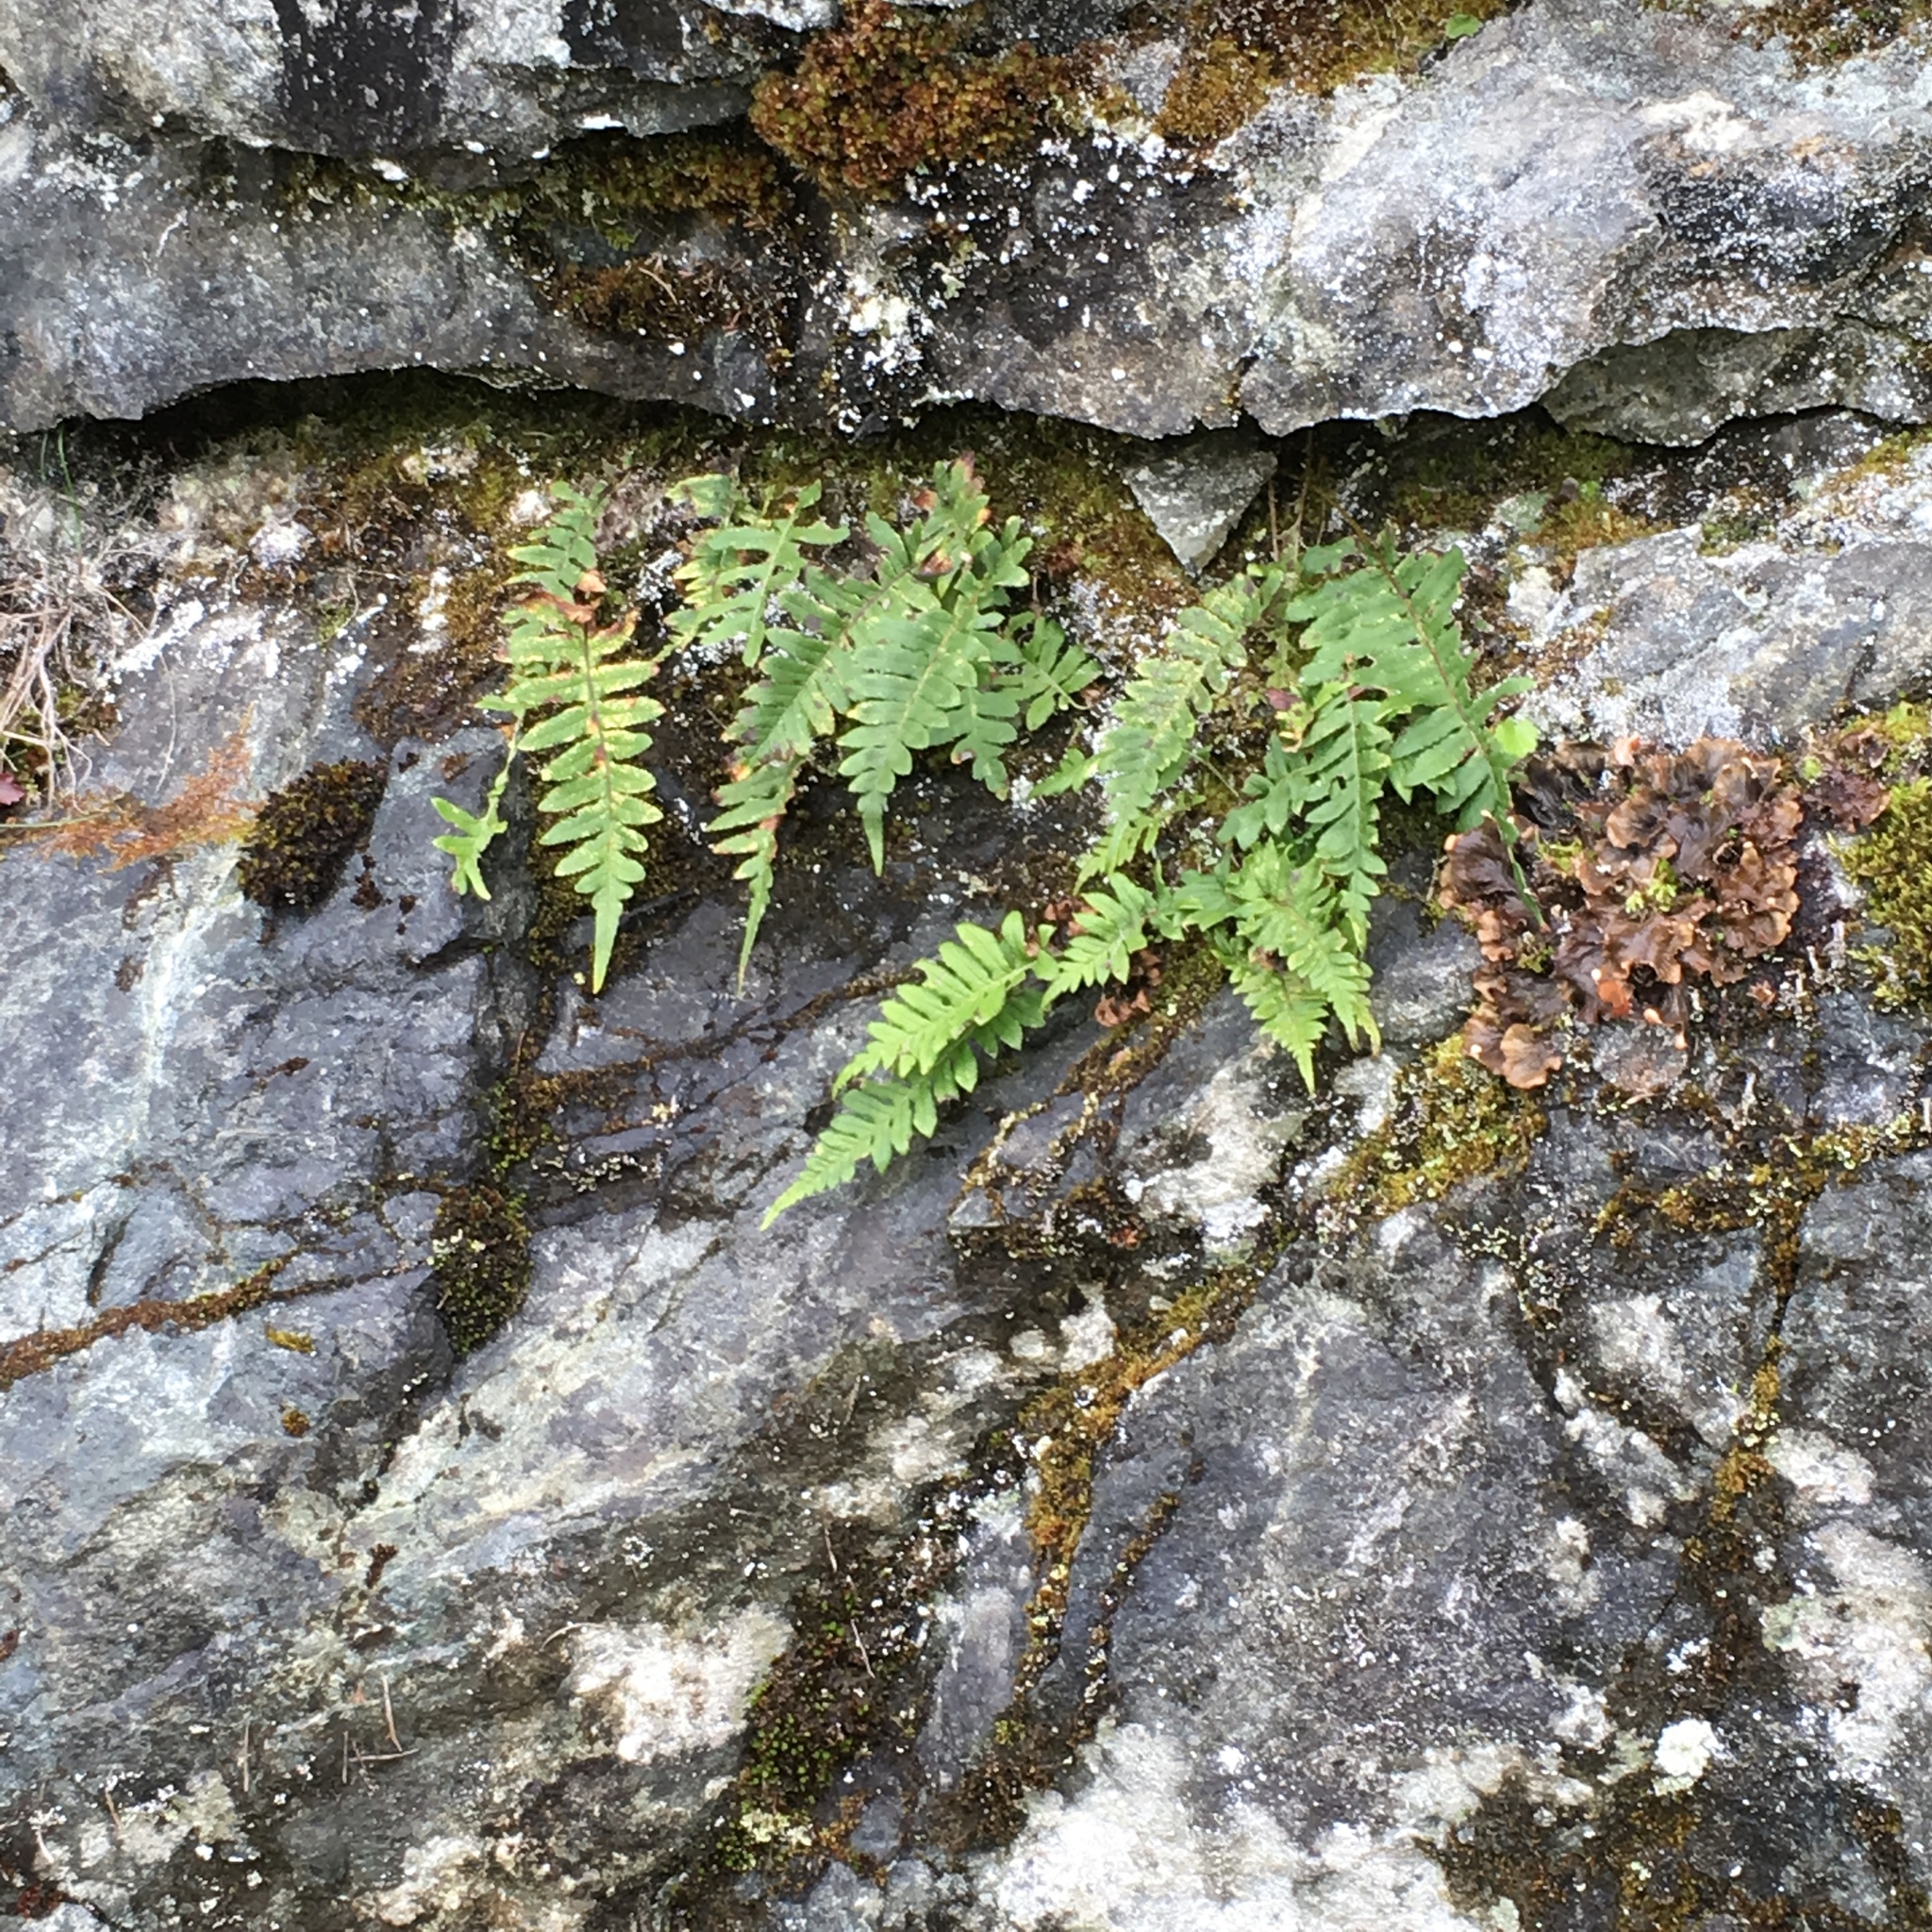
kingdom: Plantae
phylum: Tracheophyta
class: Polypodiopsida
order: Polypodiales
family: Polypodiaceae
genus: Polypodium
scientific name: Polypodium glycyrrhiza
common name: Licorice fern
